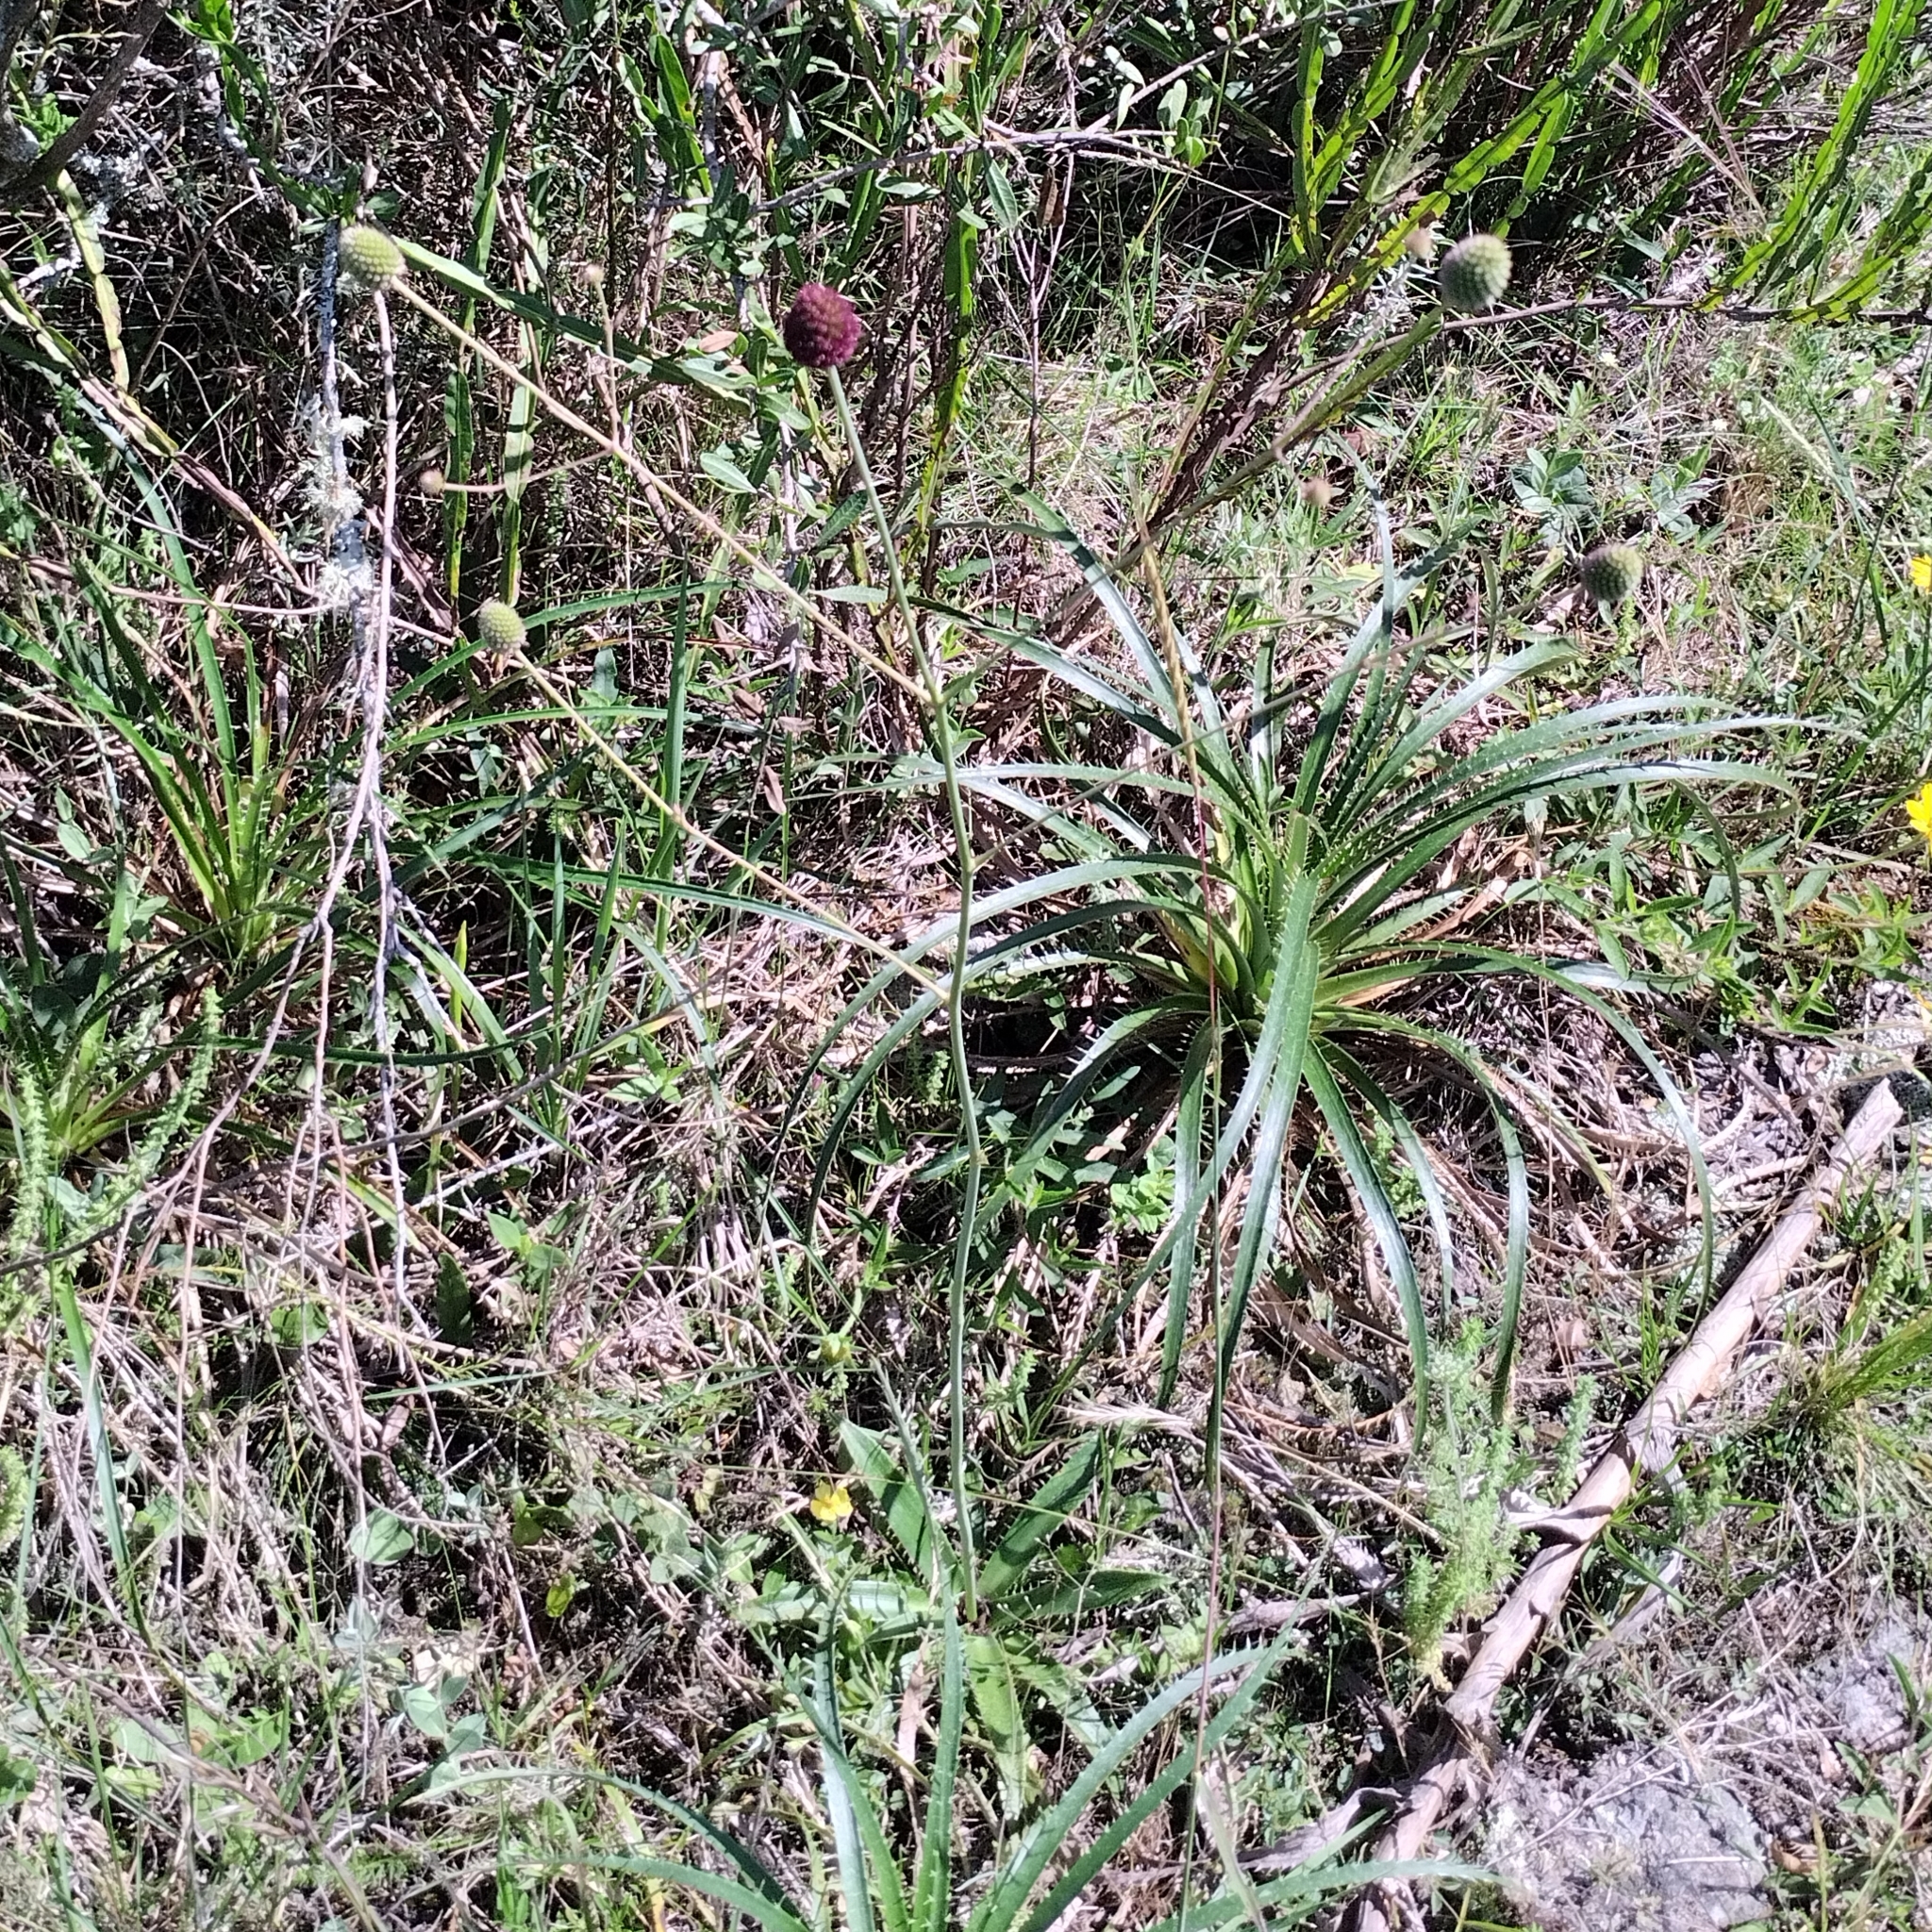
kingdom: Plantae
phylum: Tracheophyta
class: Magnoliopsida
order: Apiales
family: Apiaceae
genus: Eryngium
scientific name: Eryngium sanguisorba
